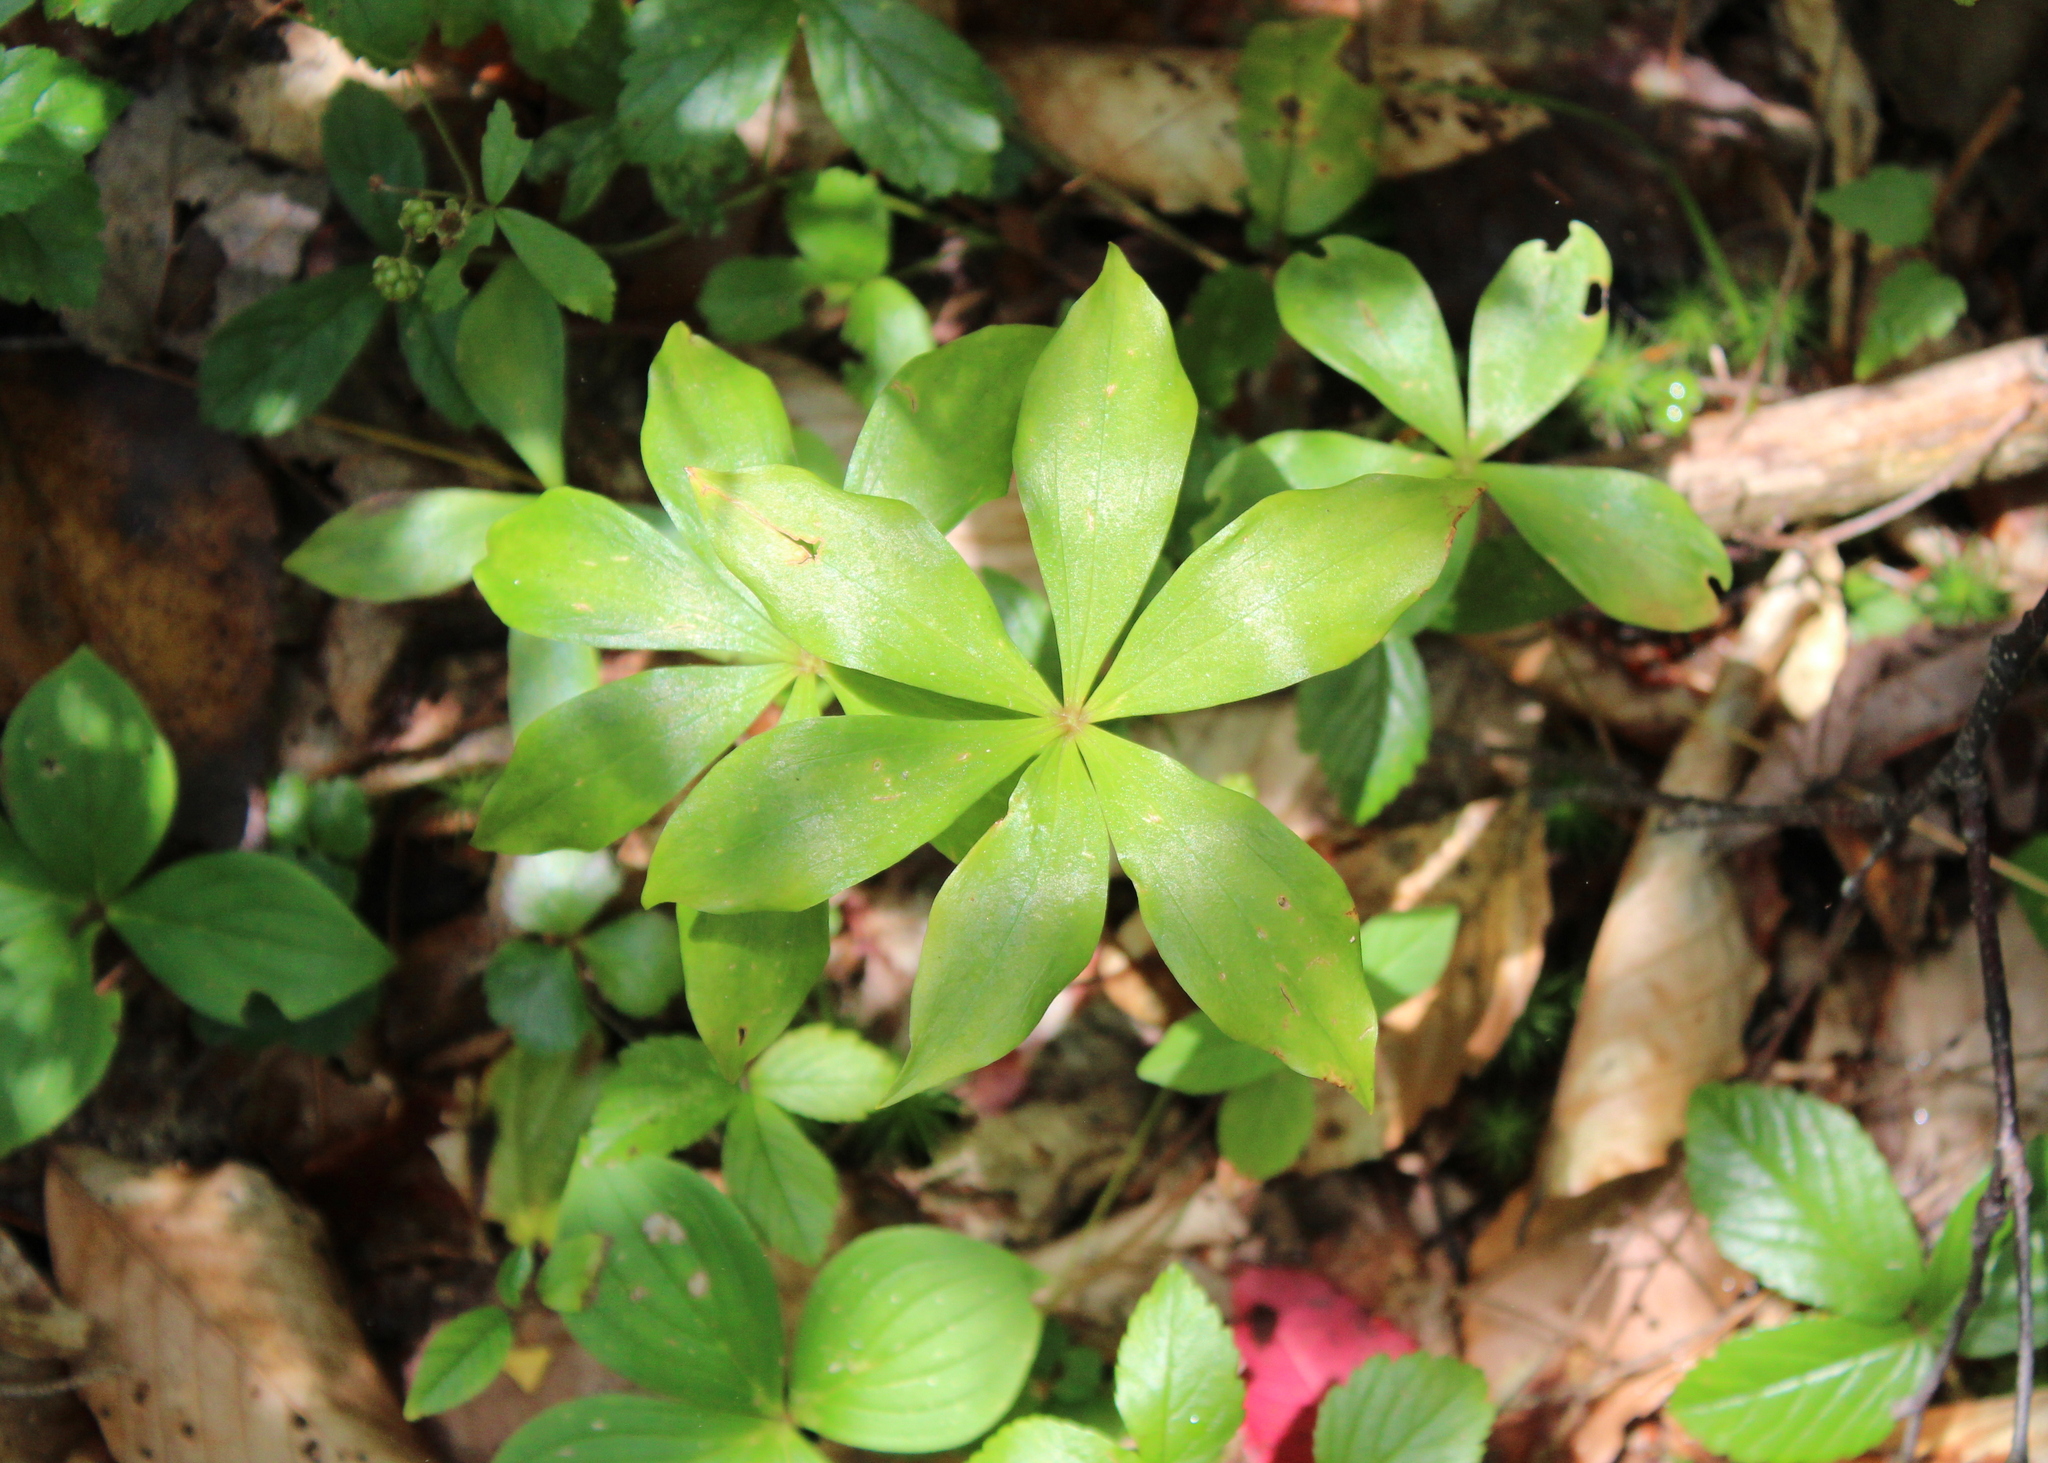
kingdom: Plantae
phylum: Tracheophyta
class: Liliopsida
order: Liliales
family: Liliaceae
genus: Medeola
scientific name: Medeola virginiana
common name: Indian cucumber-root
